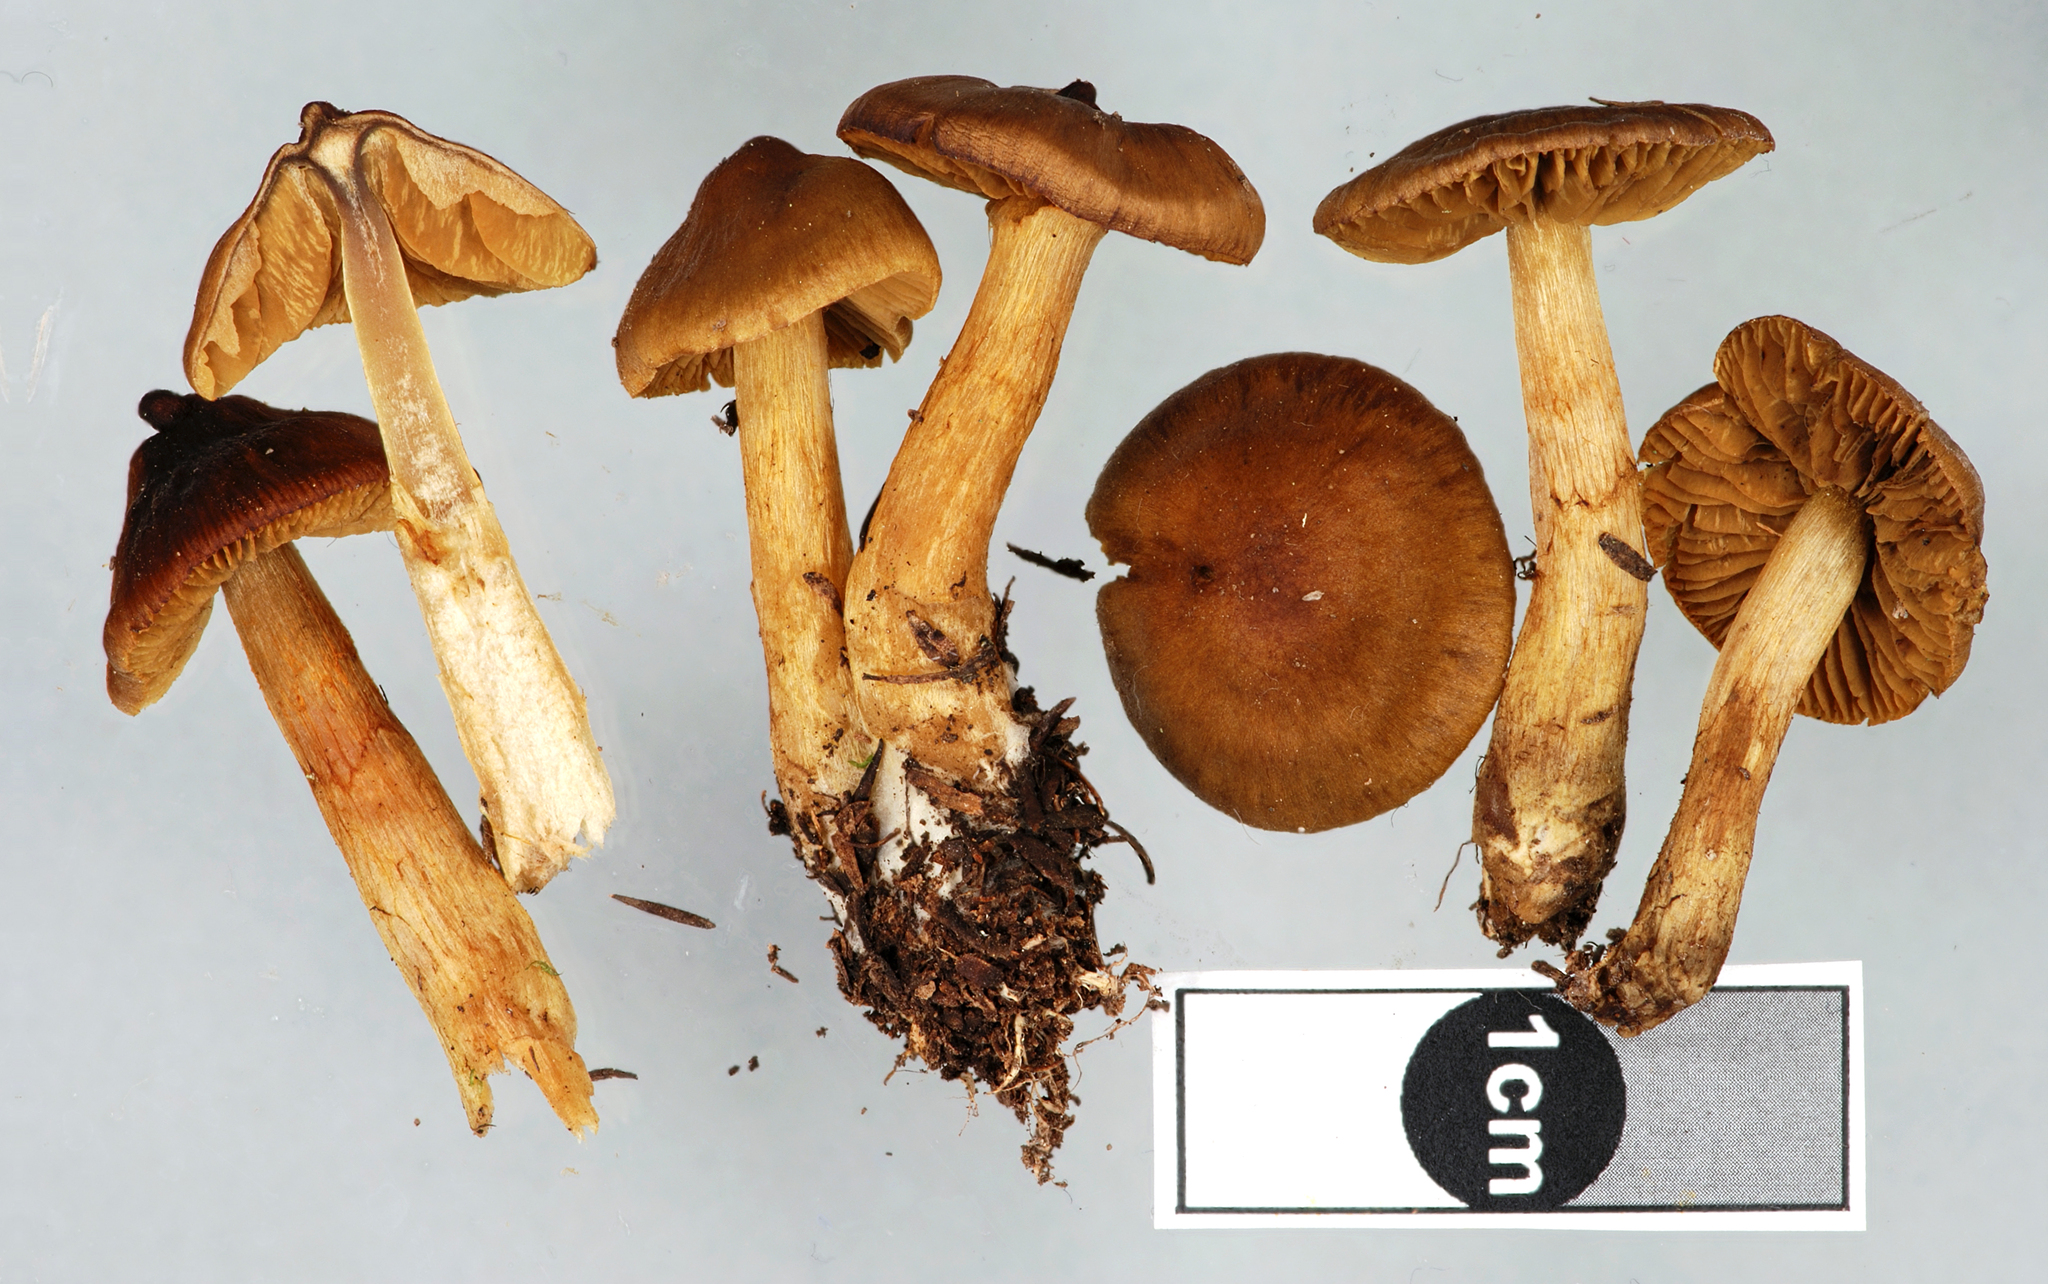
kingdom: Fungi
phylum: Basidiomycota
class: Agaricomycetes
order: Agaricales
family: Cortinariaceae
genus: Cortinarius
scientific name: Cortinarius
